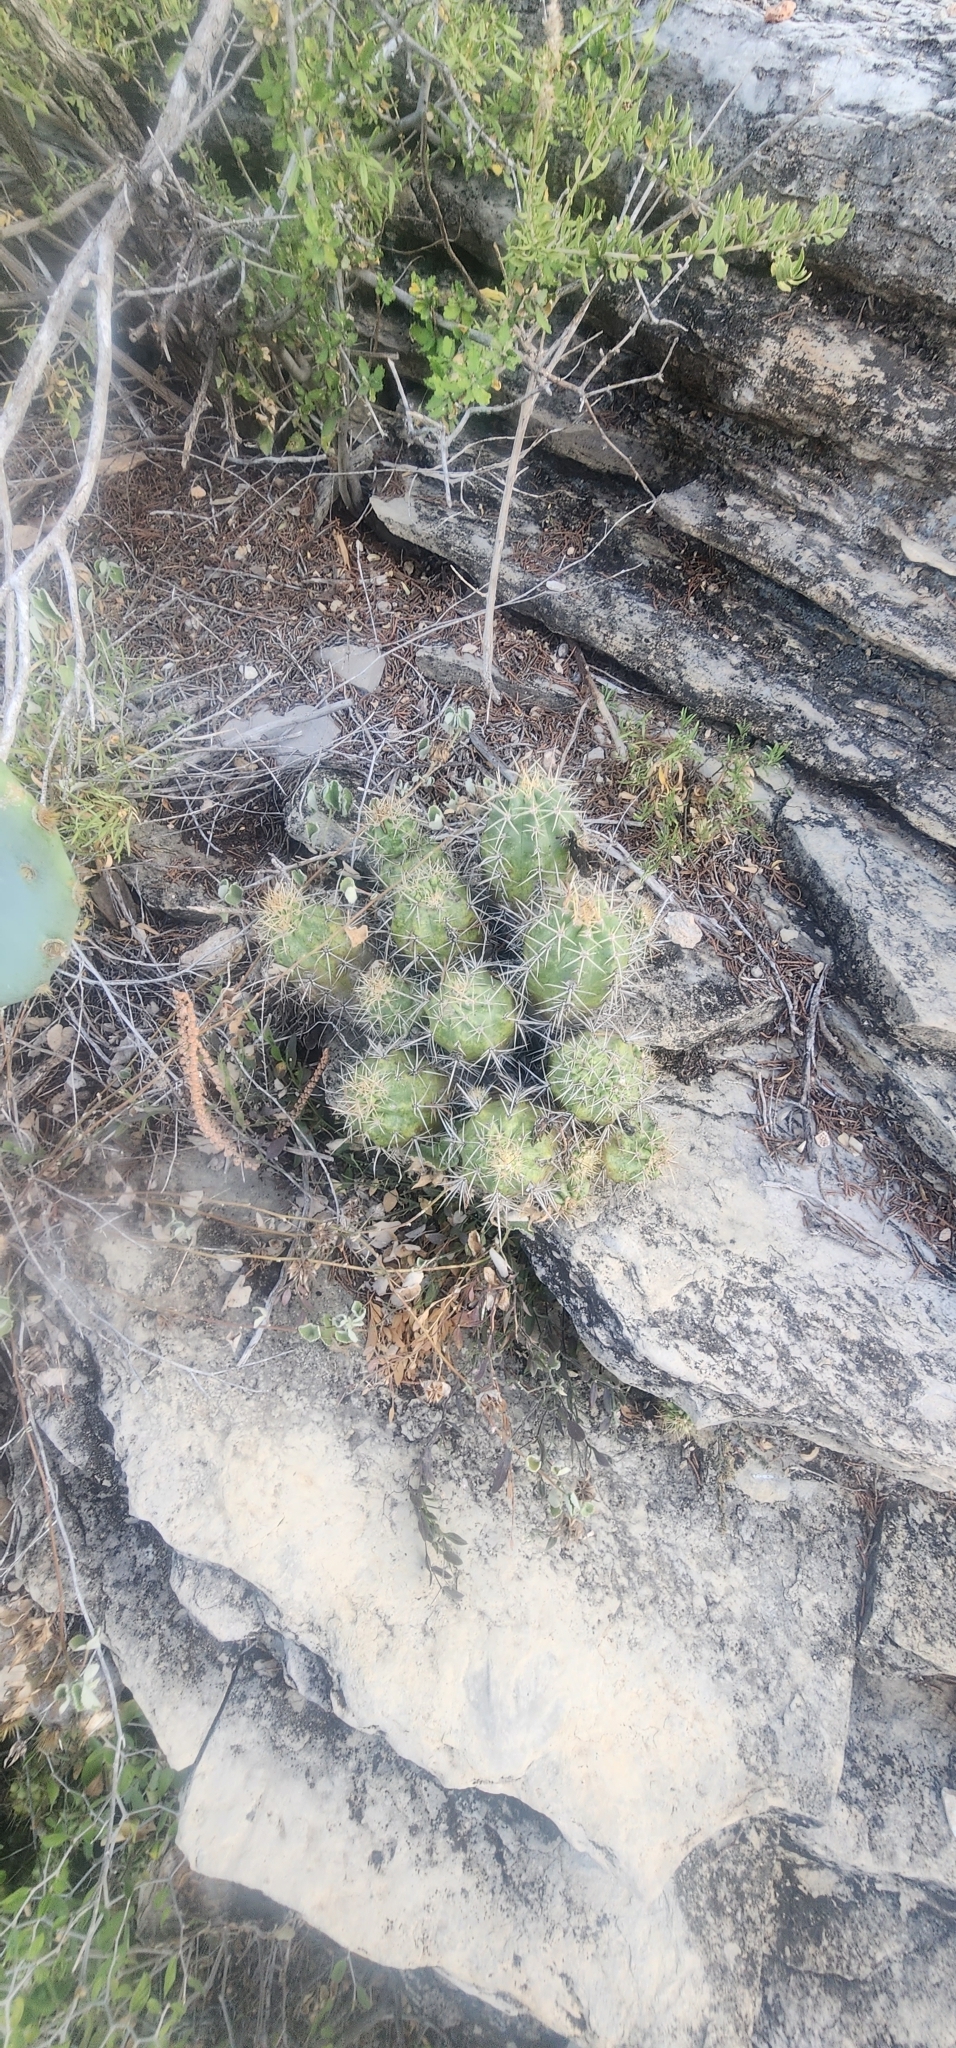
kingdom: Plantae
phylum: Tracheophyta
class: Magnoliopsida
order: Caryophyllales
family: Cactaceae
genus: Echinocereus
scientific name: Echinocereus coccineus
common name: Scarlet hedgehog cactus
